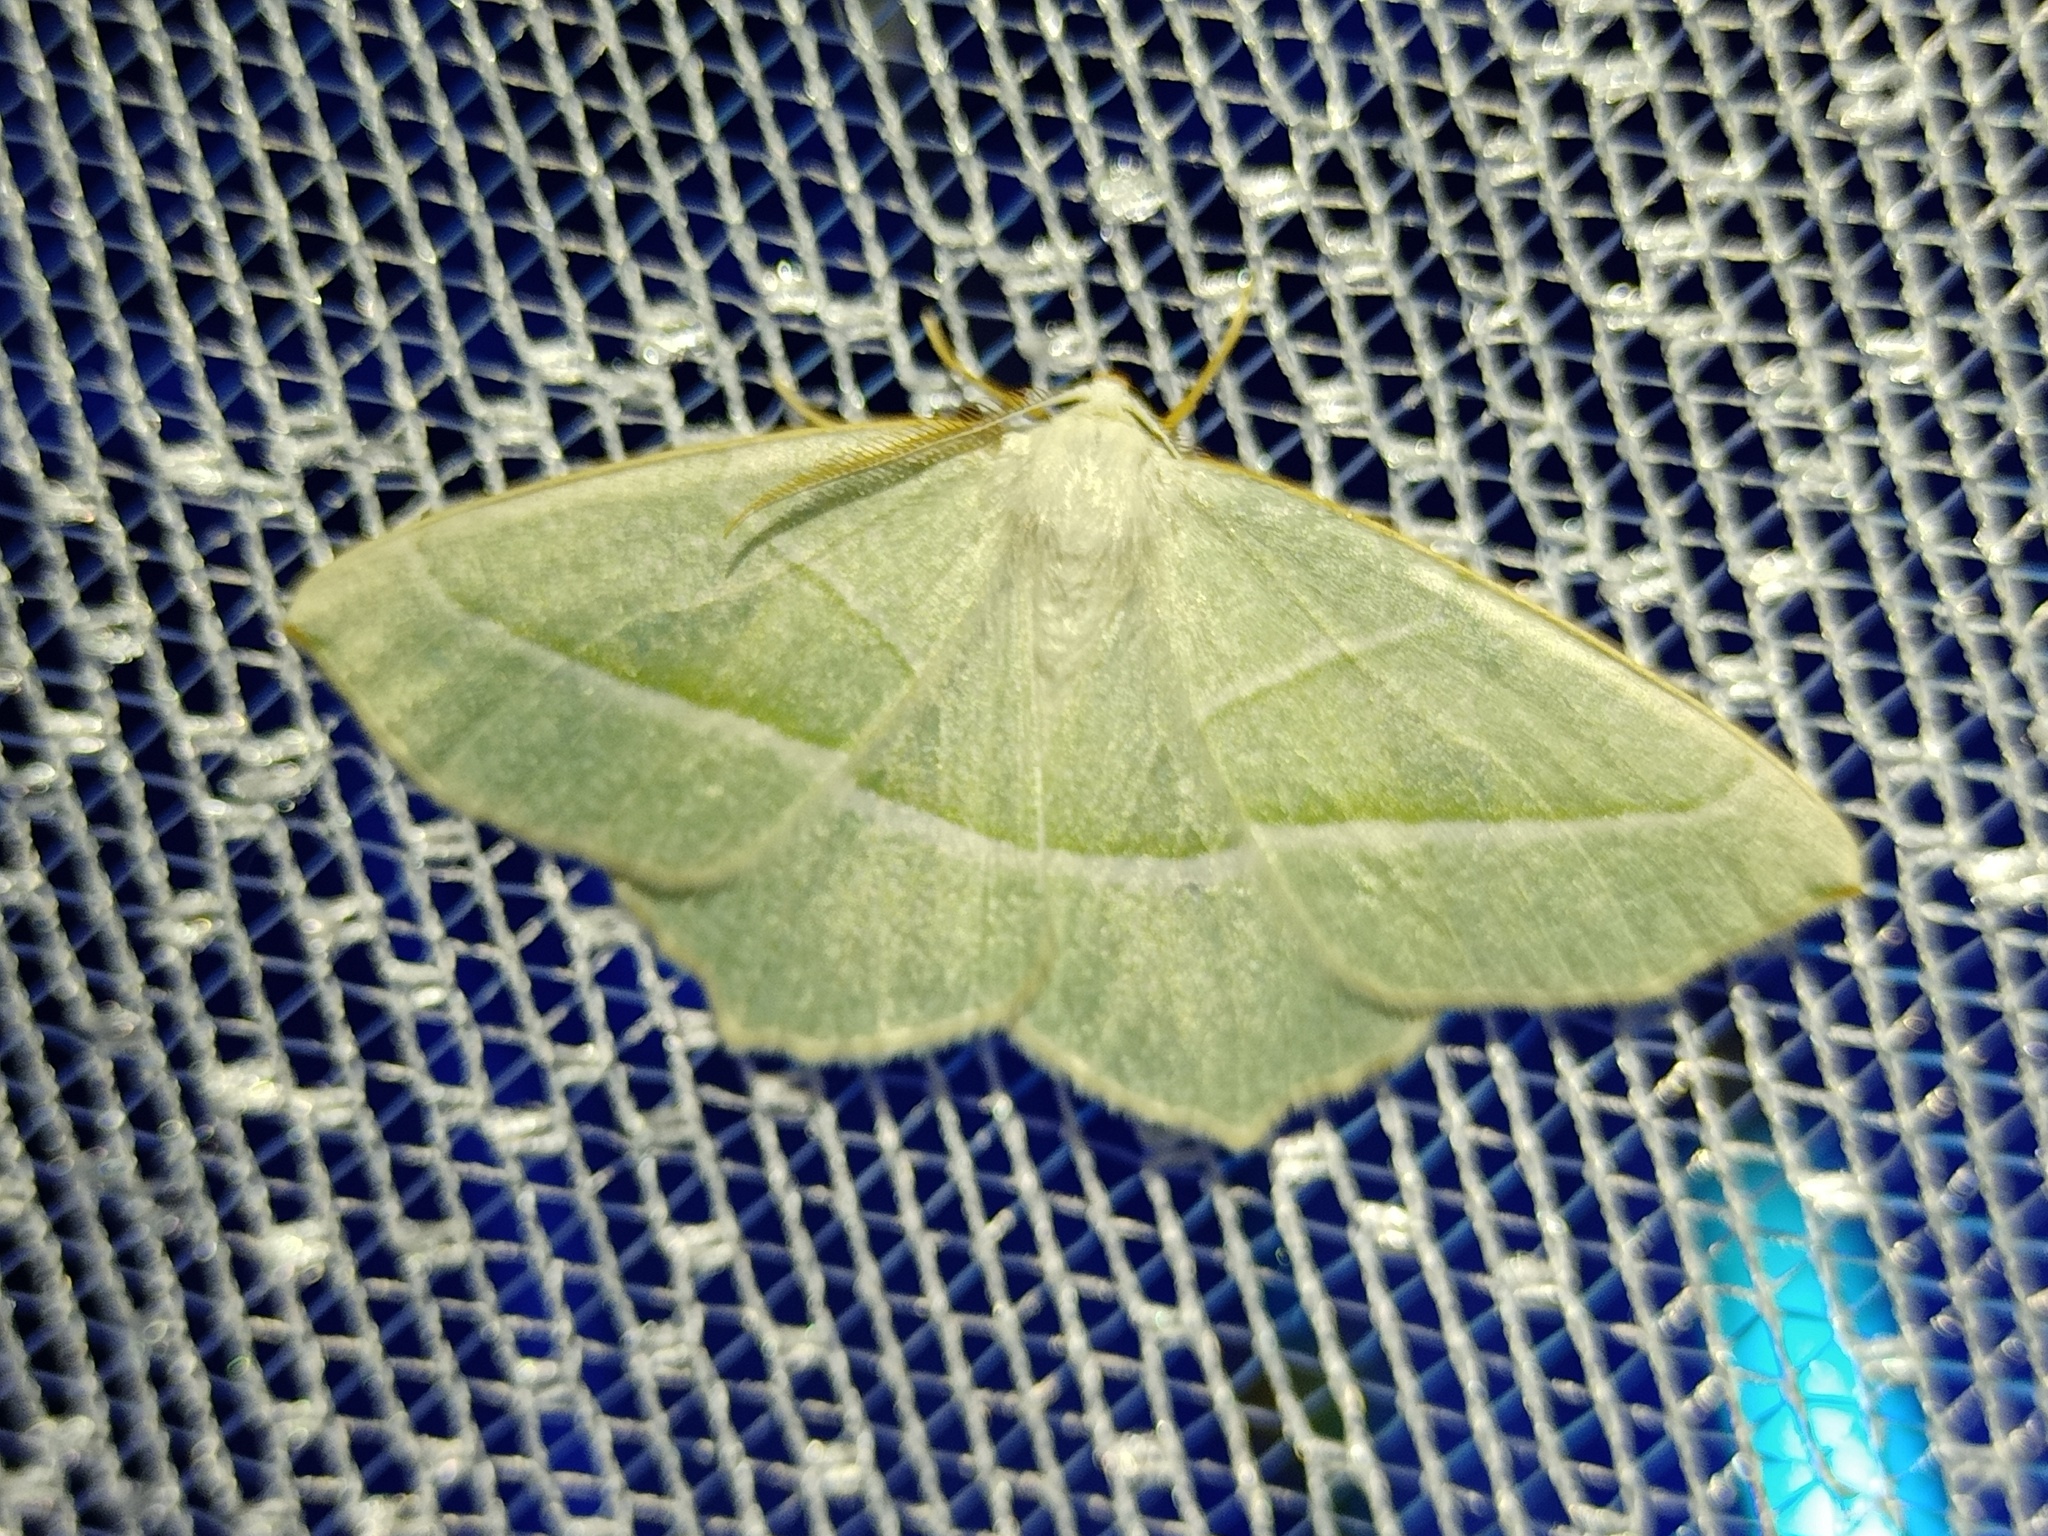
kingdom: Animalia
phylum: Arthropoda
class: Insecta
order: Lepidoptera
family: Geometridae
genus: Campaea
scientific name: Campaea margaritaria
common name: Light emerald
